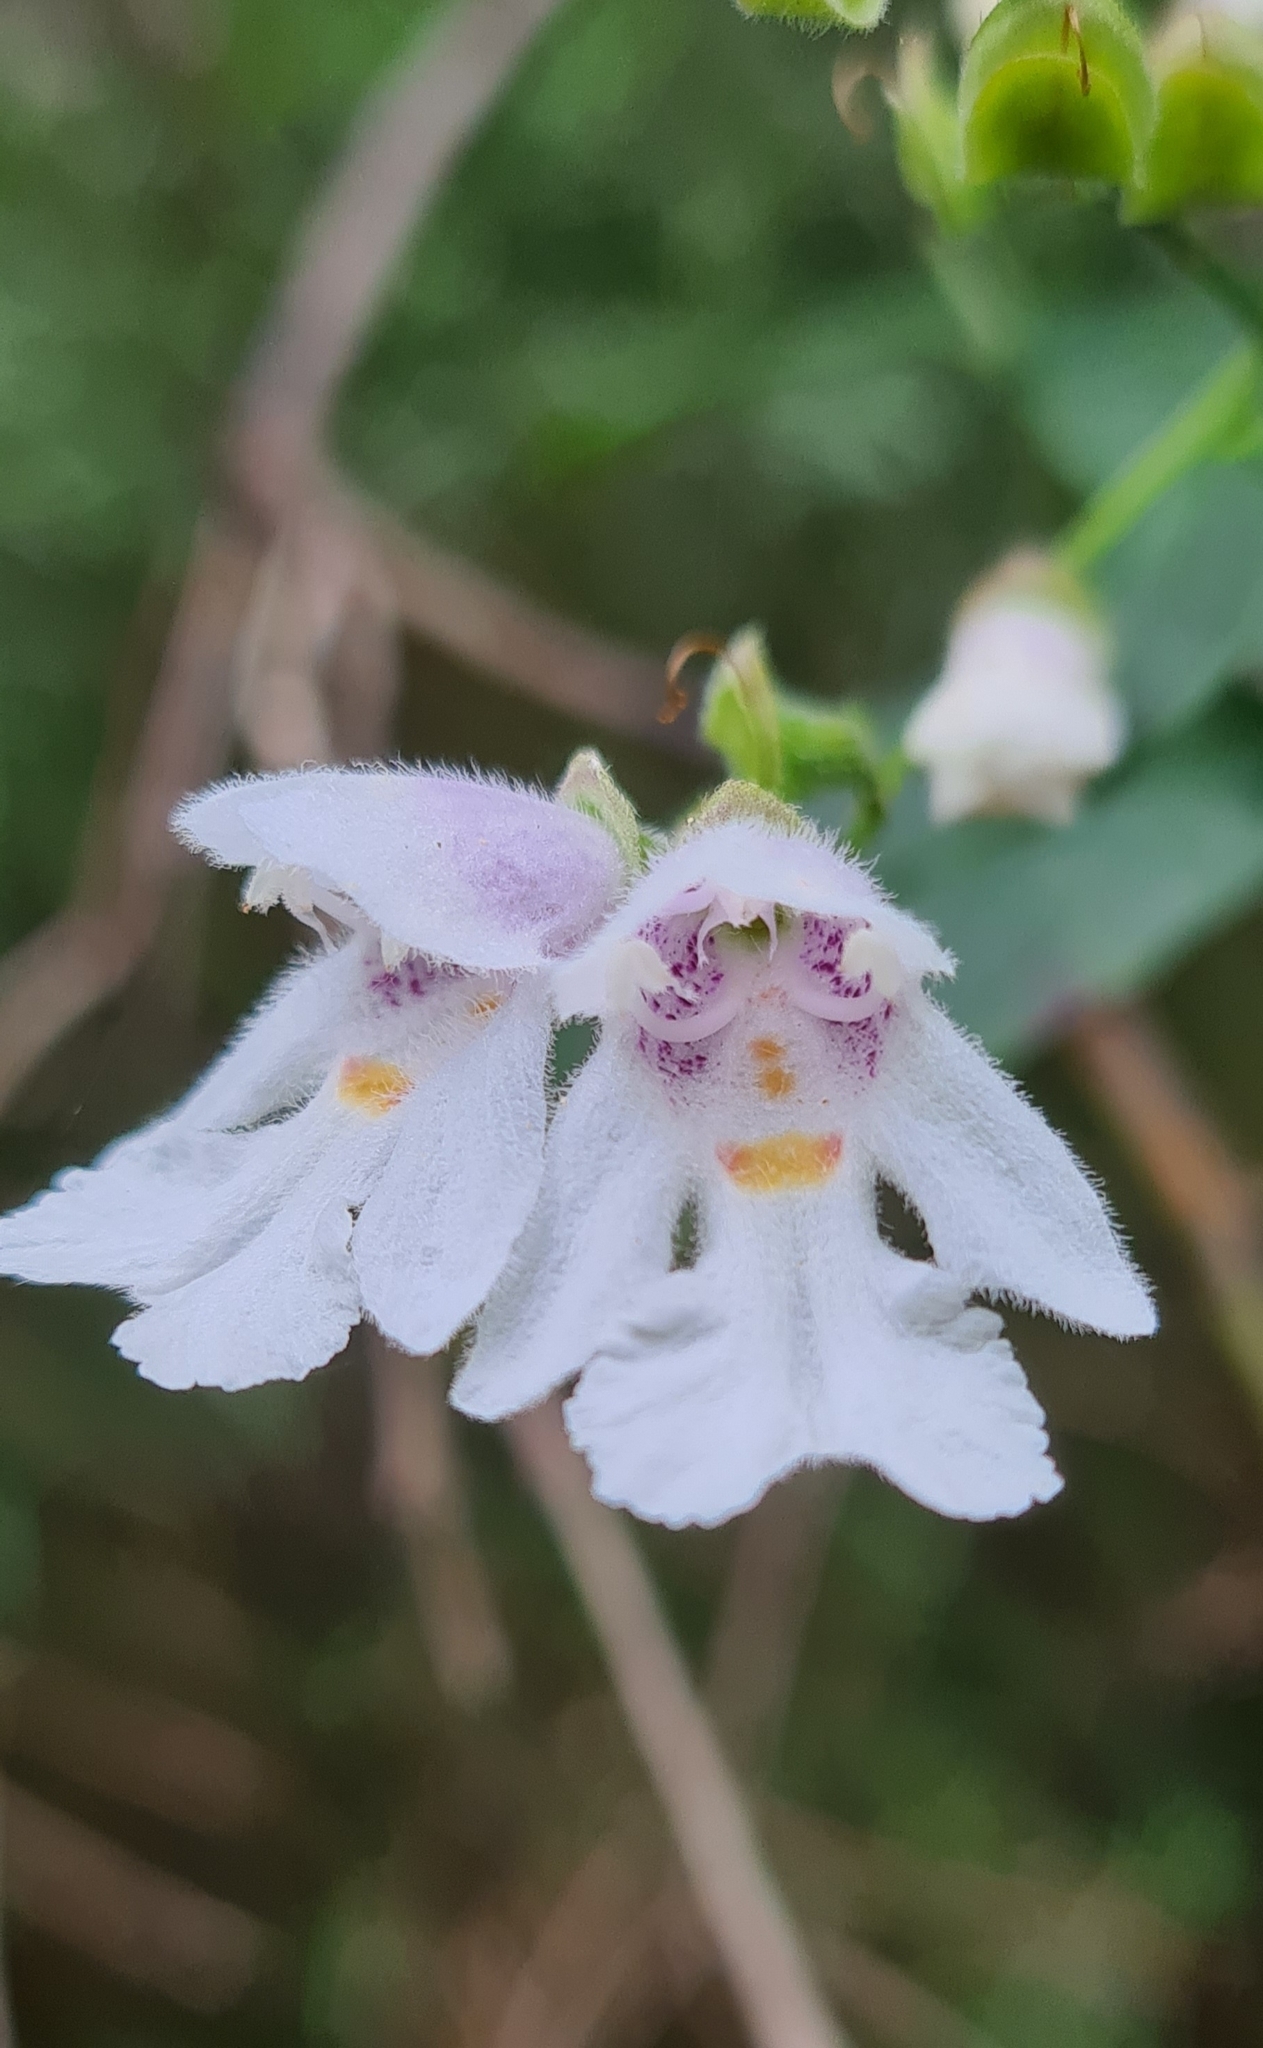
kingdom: Plantae
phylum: Tracheophyta
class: Magnoliopsida
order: Lamiales
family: Lamiaceae
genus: Prostanthera
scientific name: Prostanthera lasianthos
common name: Mountain-lilac
